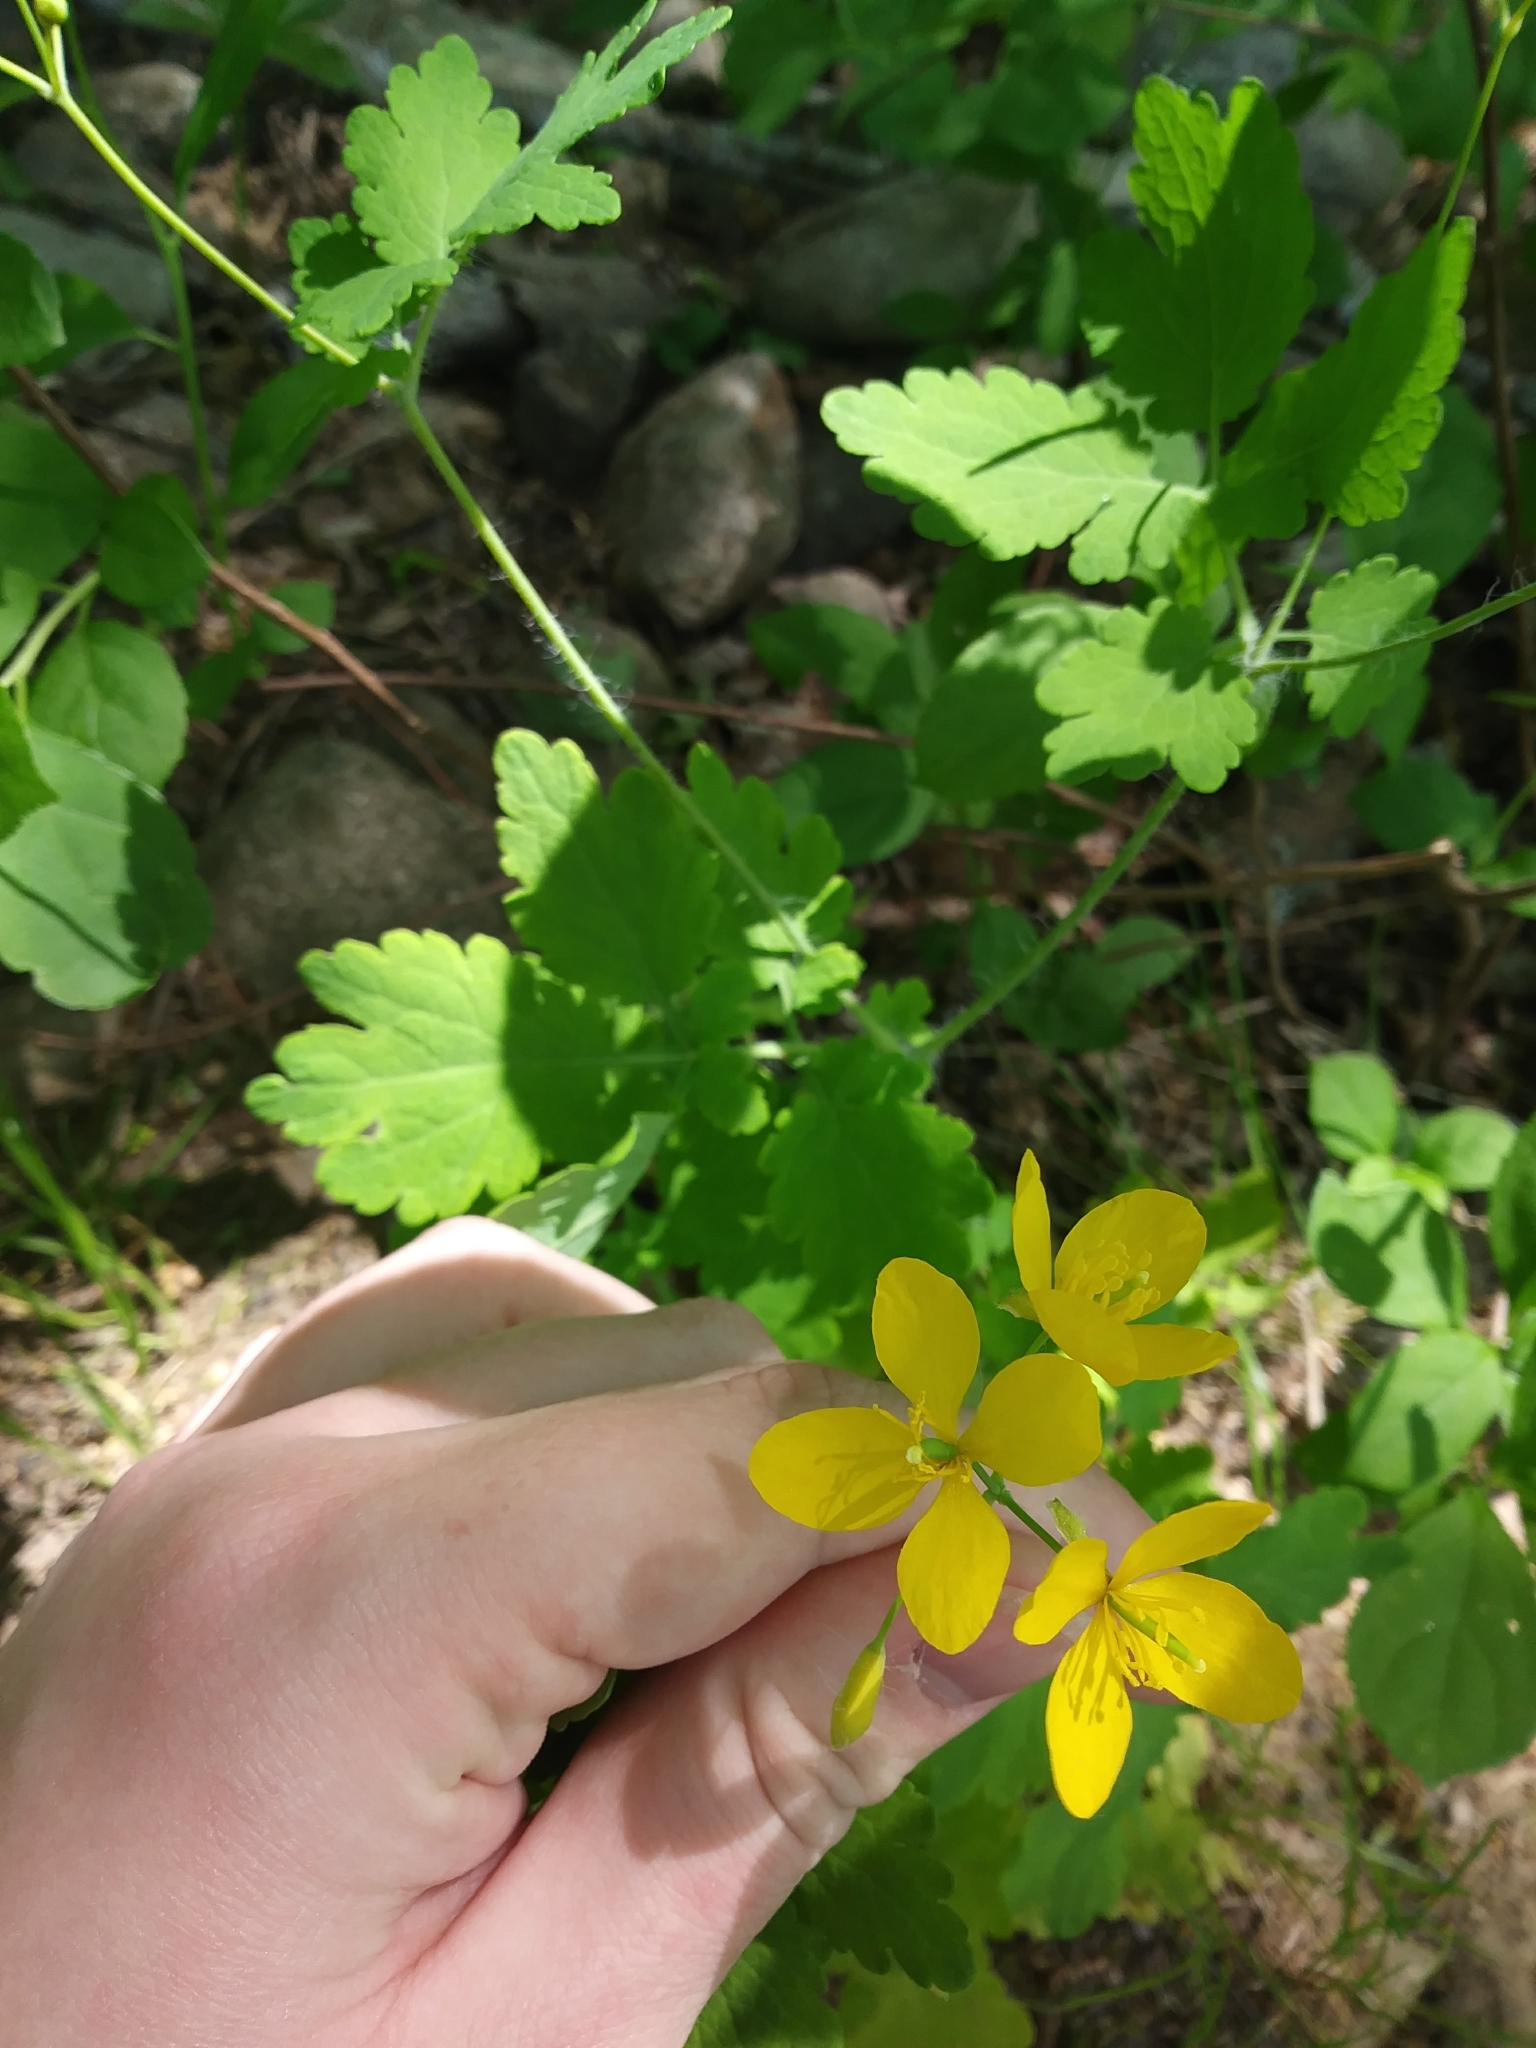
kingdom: Plantae
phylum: Tracheophyta
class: Magnoliopsida
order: Ranunculales
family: Papaveraceae
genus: Chelidonium
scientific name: Chelidonium majus
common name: Greater celandine
